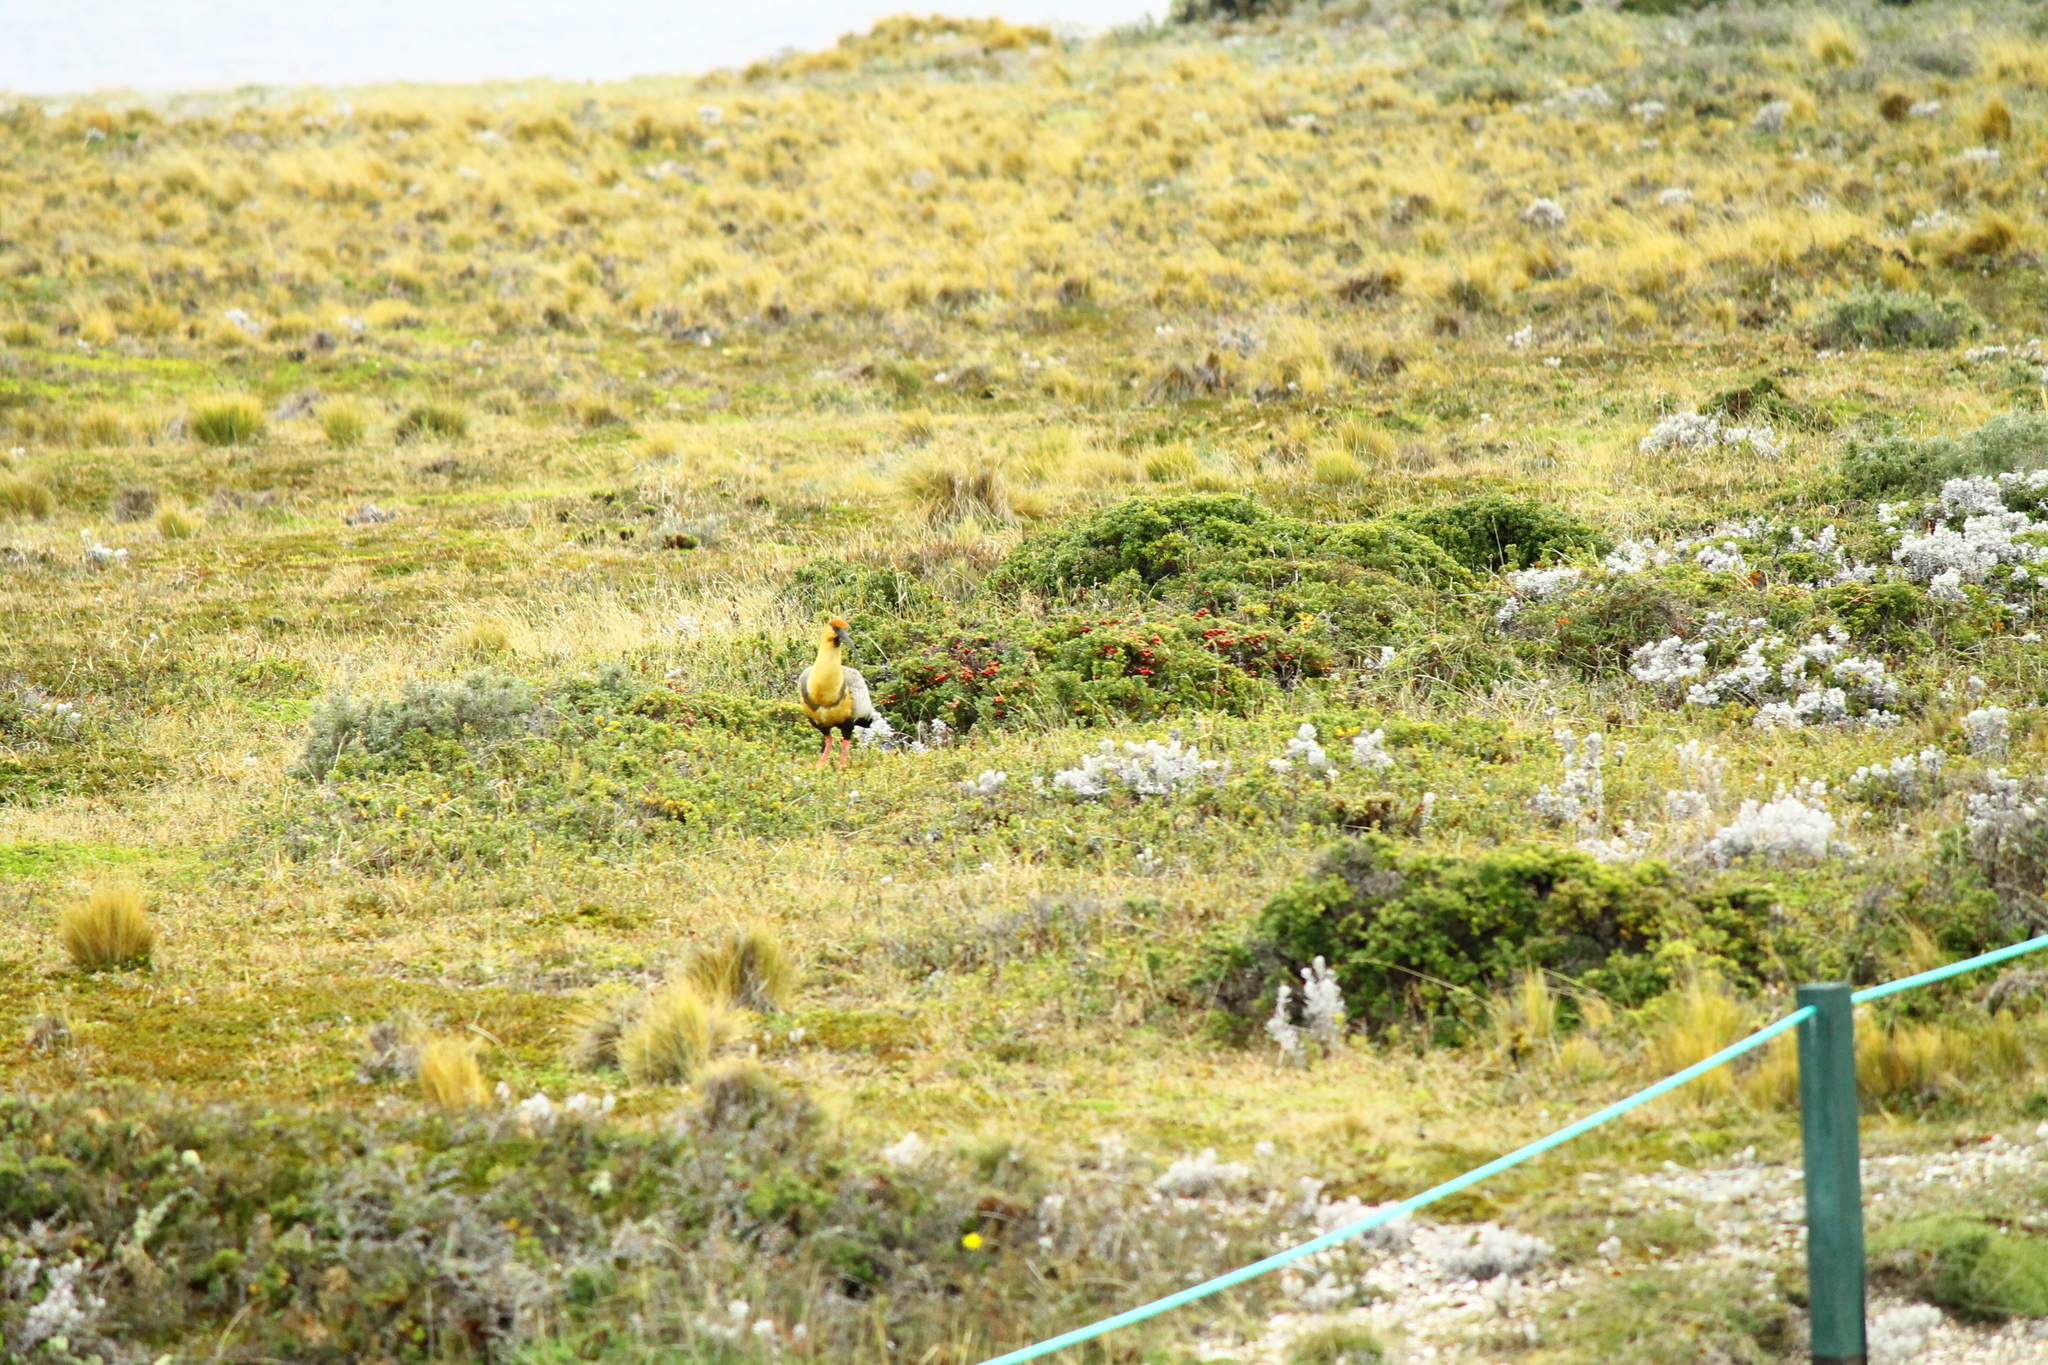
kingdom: Animalia
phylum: Chordata
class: Aves
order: Pelecaniformes
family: Threskiornithidae
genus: Theristicus
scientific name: Theristicus melanopis
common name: Black-faced ibis
